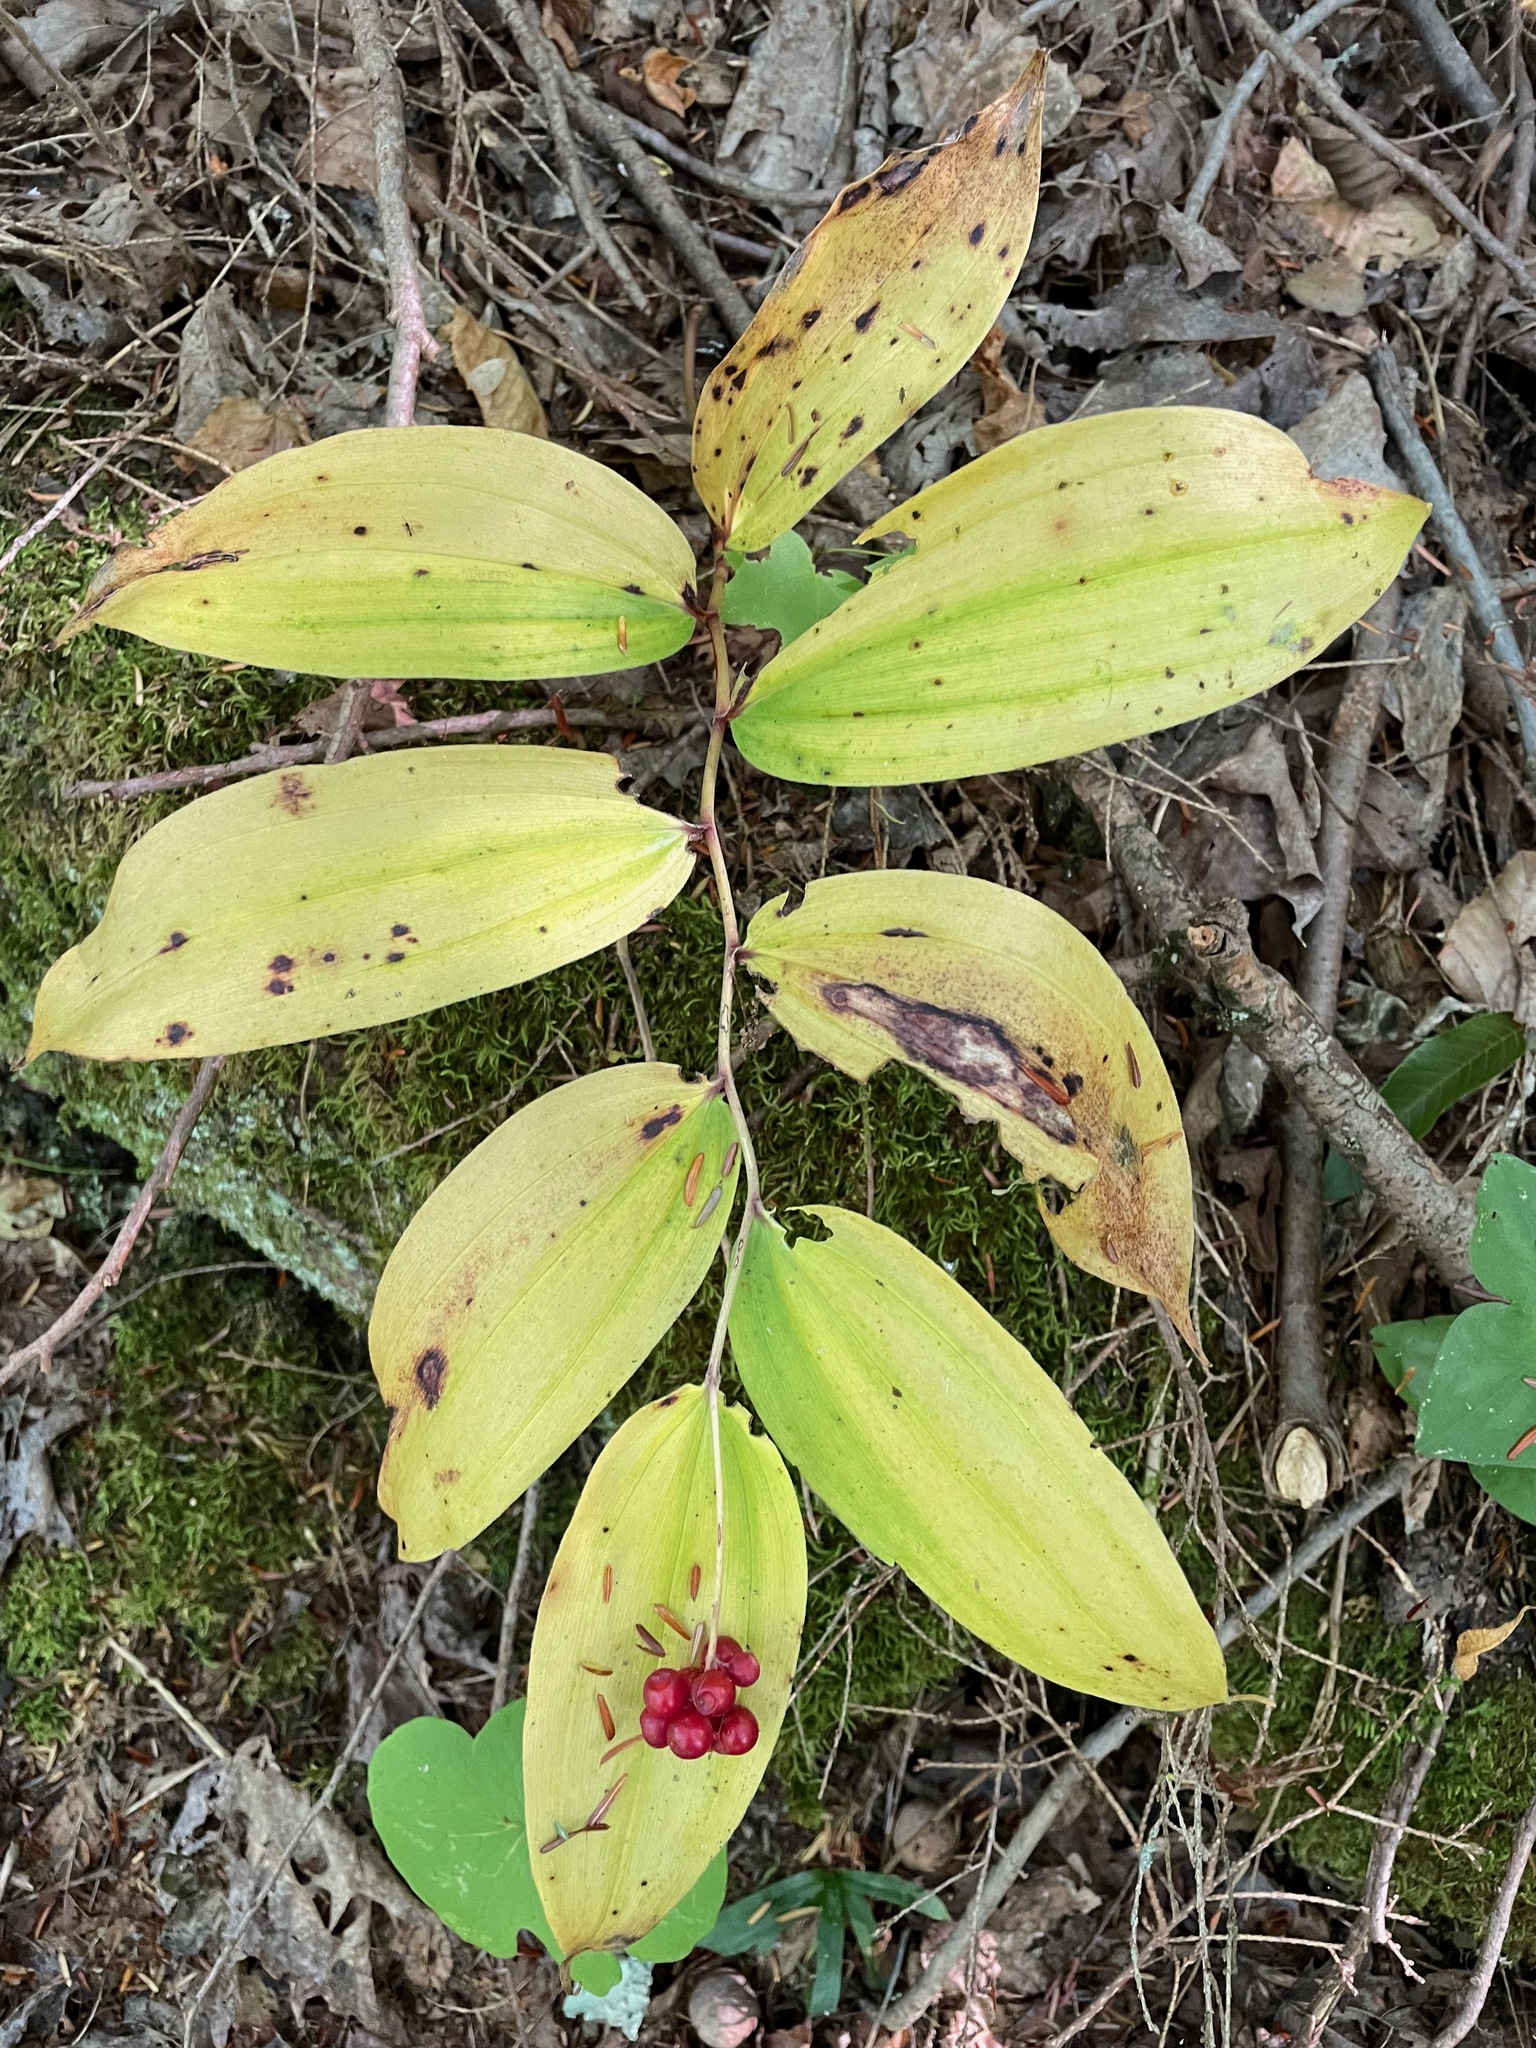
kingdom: Plantae
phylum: Tracheophyta
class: Liliopsida
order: Asparagales
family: Asparagaceae
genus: Maianthemum
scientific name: Maianthemum racemosum
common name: False spikenard
